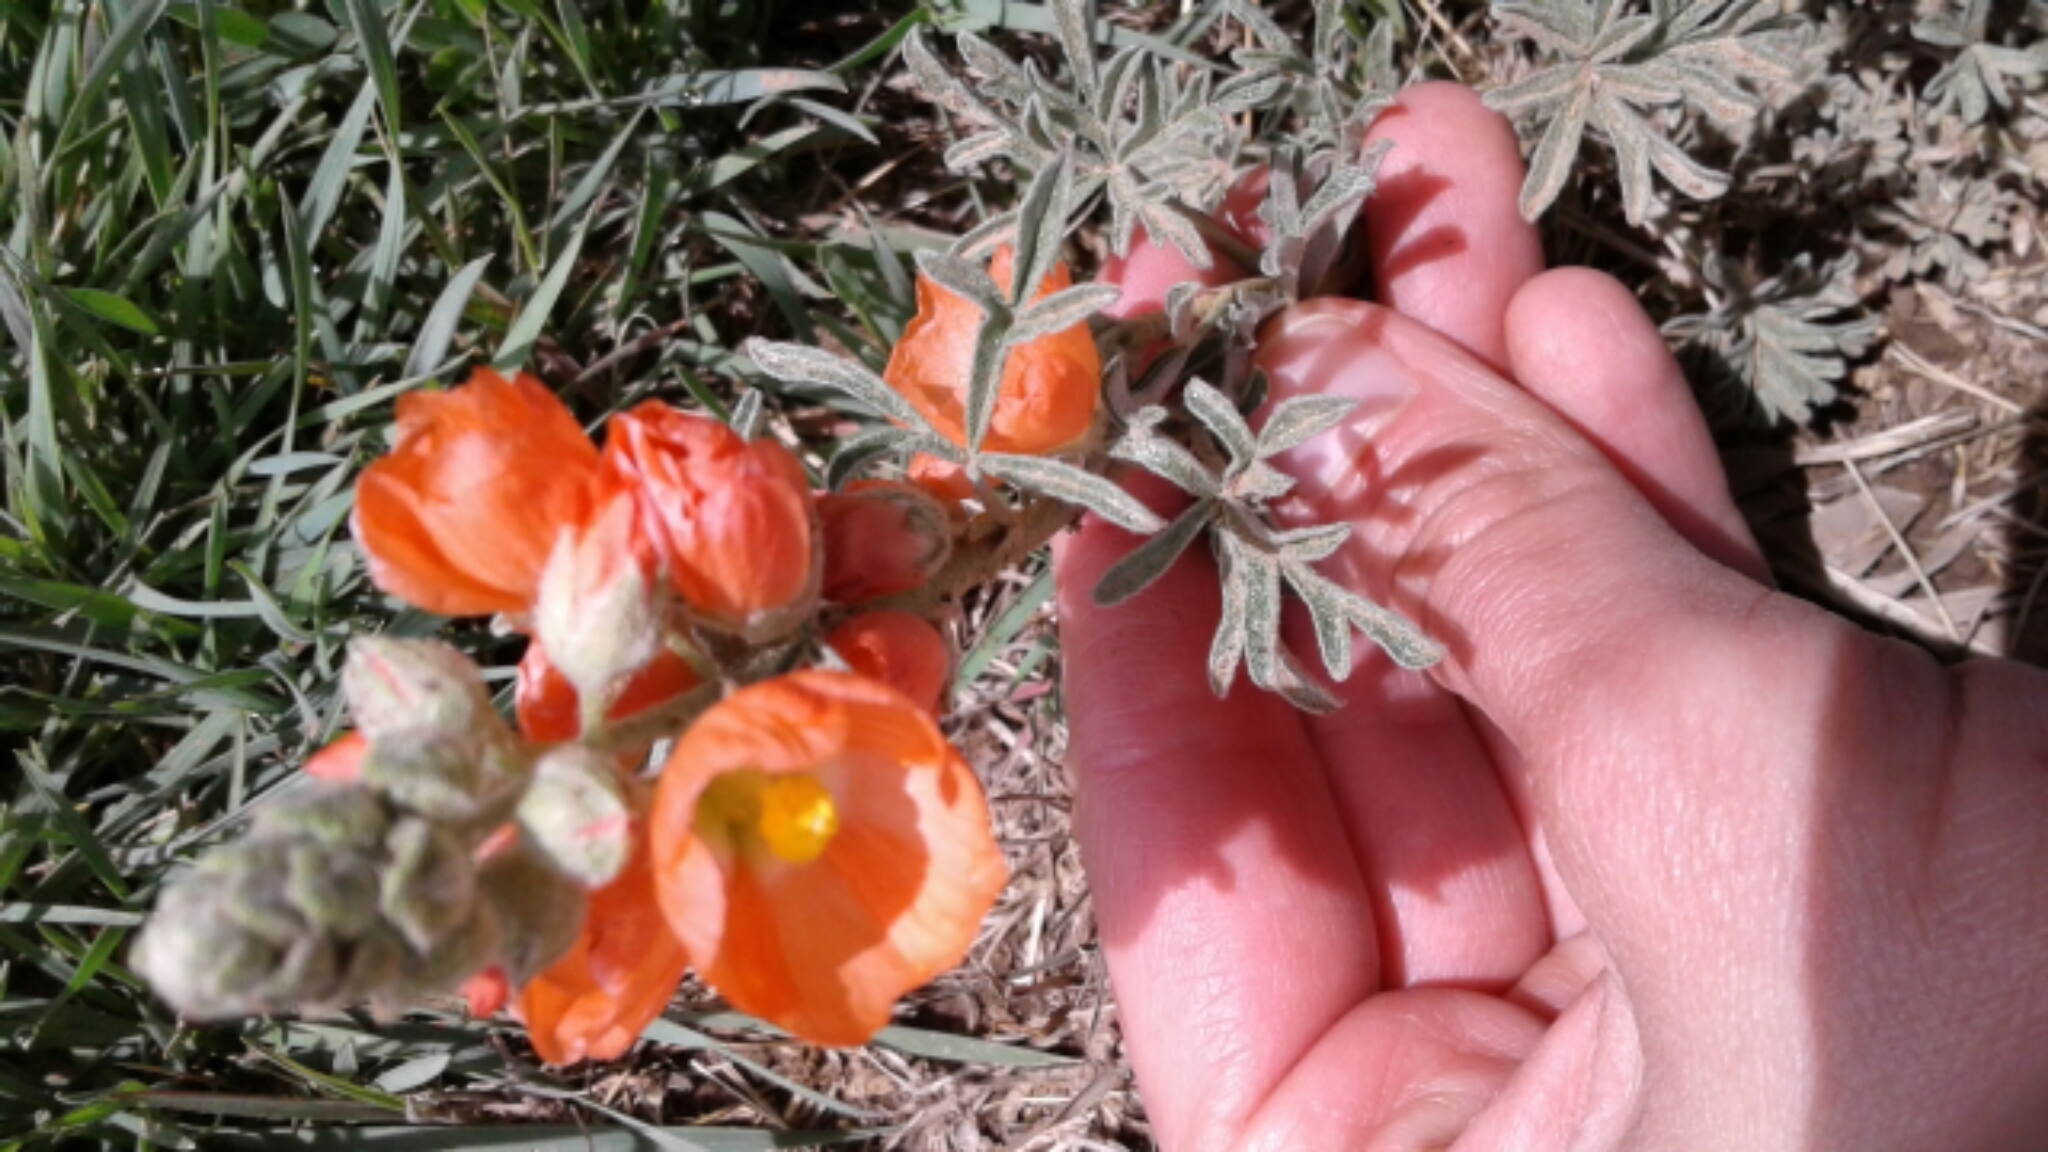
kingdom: Plantae
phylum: Tracheophyta
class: Magnoliopsida
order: Malvales
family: Malvaceae
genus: Sphaeralcea
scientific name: Sphaeralcea coccinea
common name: Moss-rose
